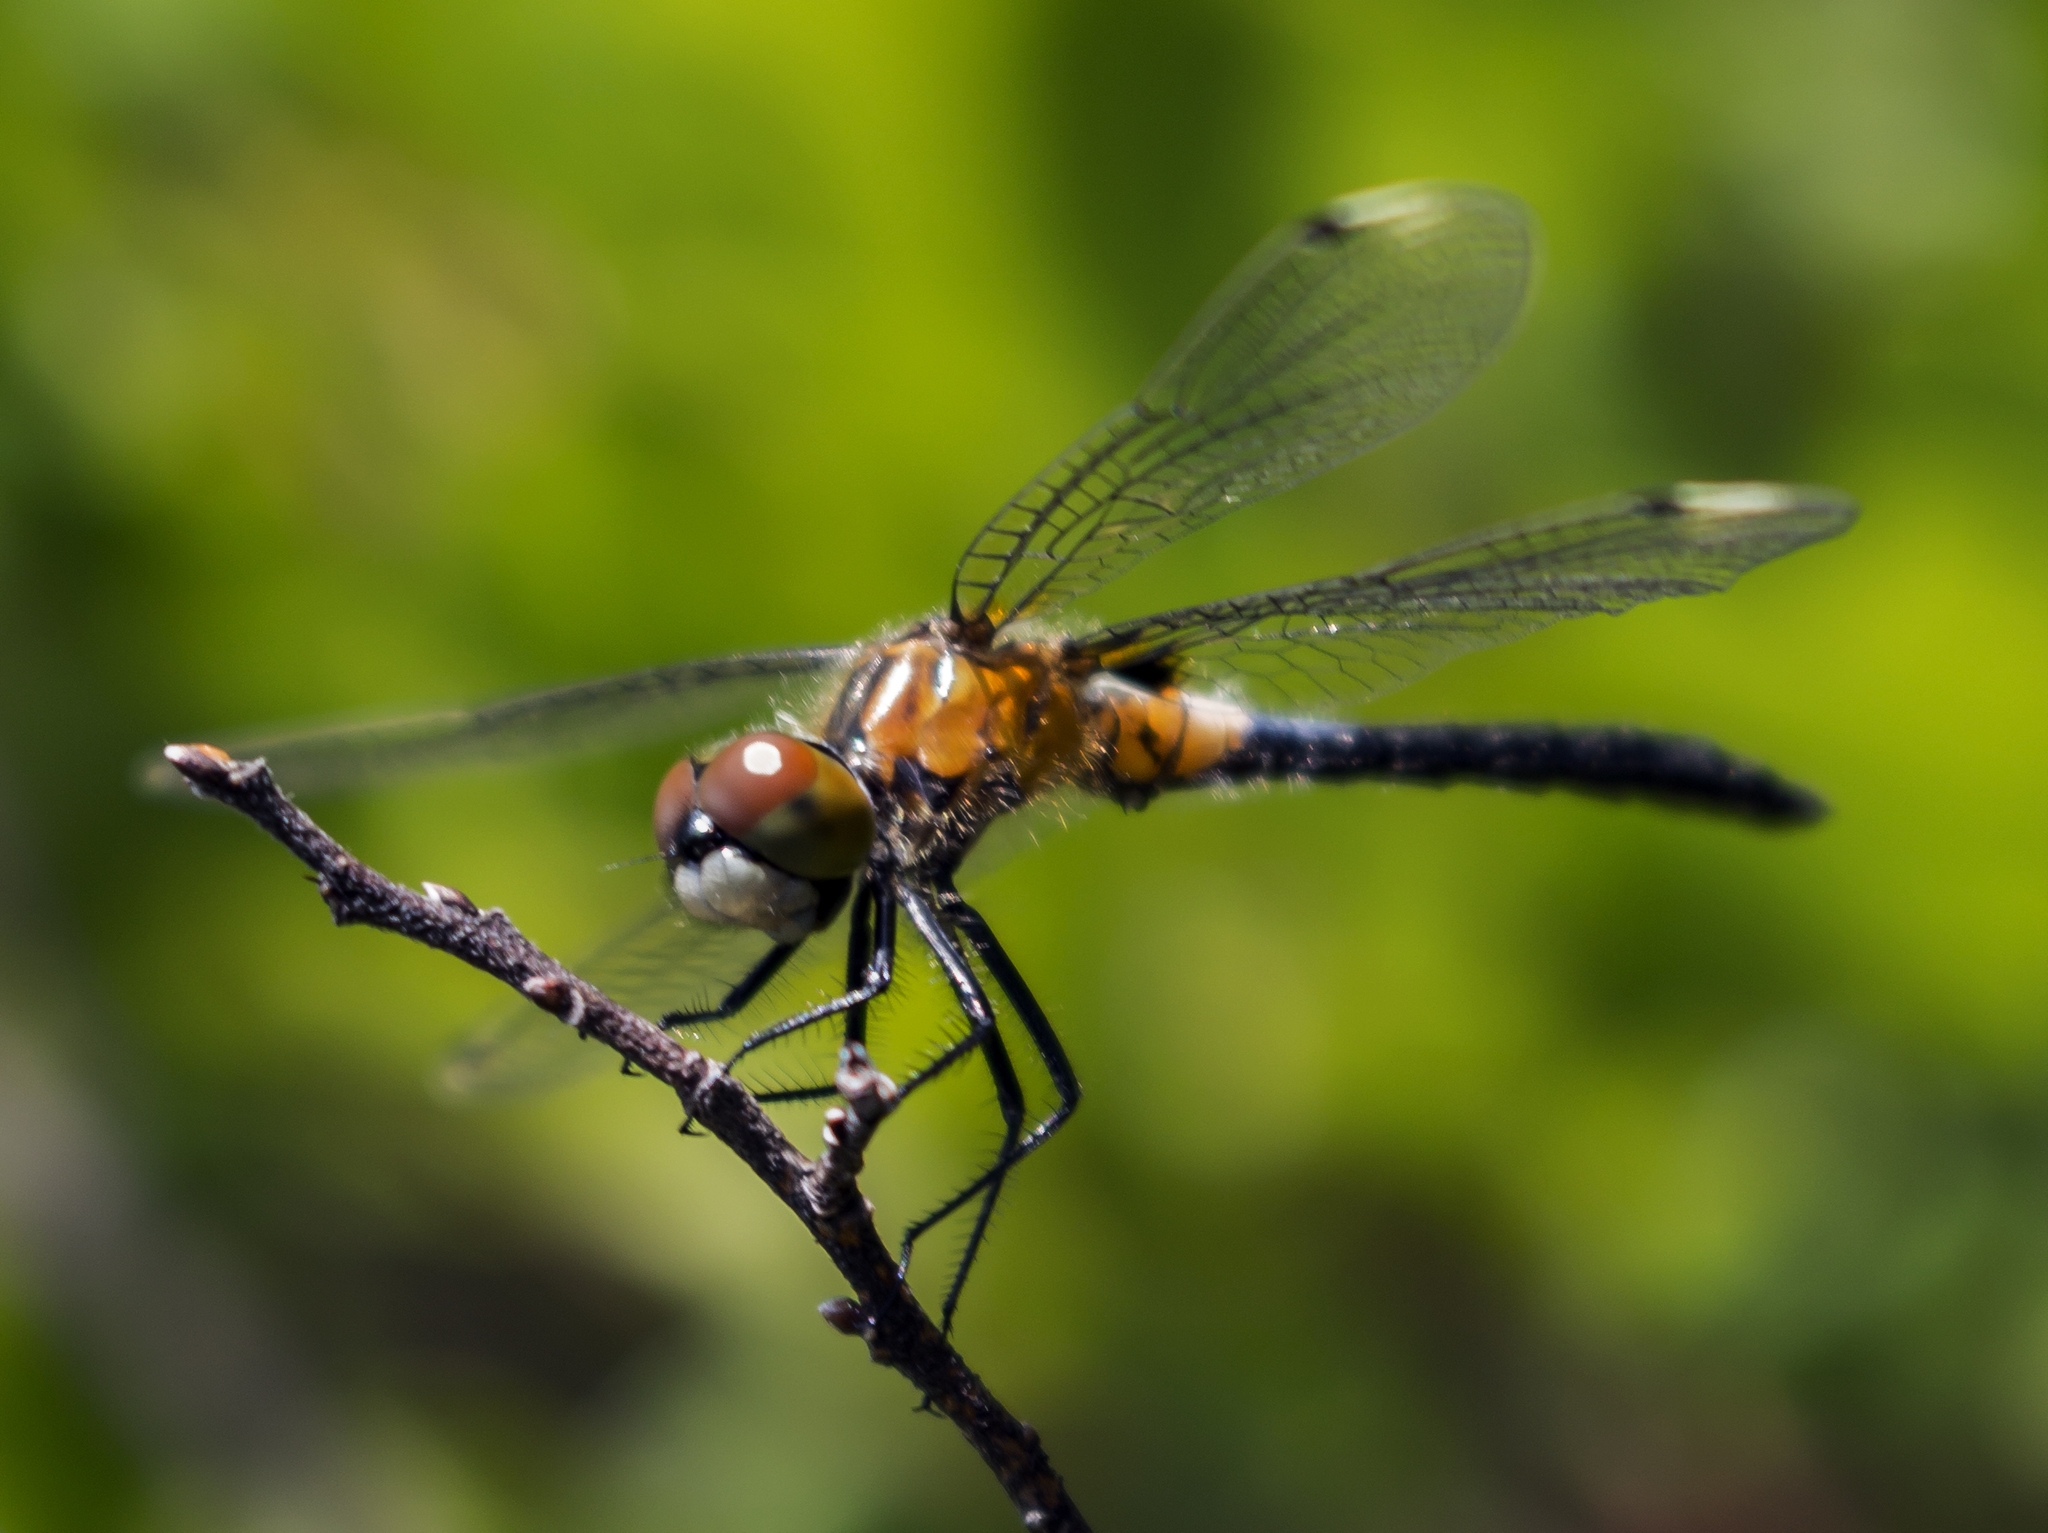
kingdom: Animalia
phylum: Arthropoda
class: Insecta
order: Odonata
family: Libellulidae
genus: Leucorrhinia
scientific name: Leucorrhinia frigida
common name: Frosted whiteface
